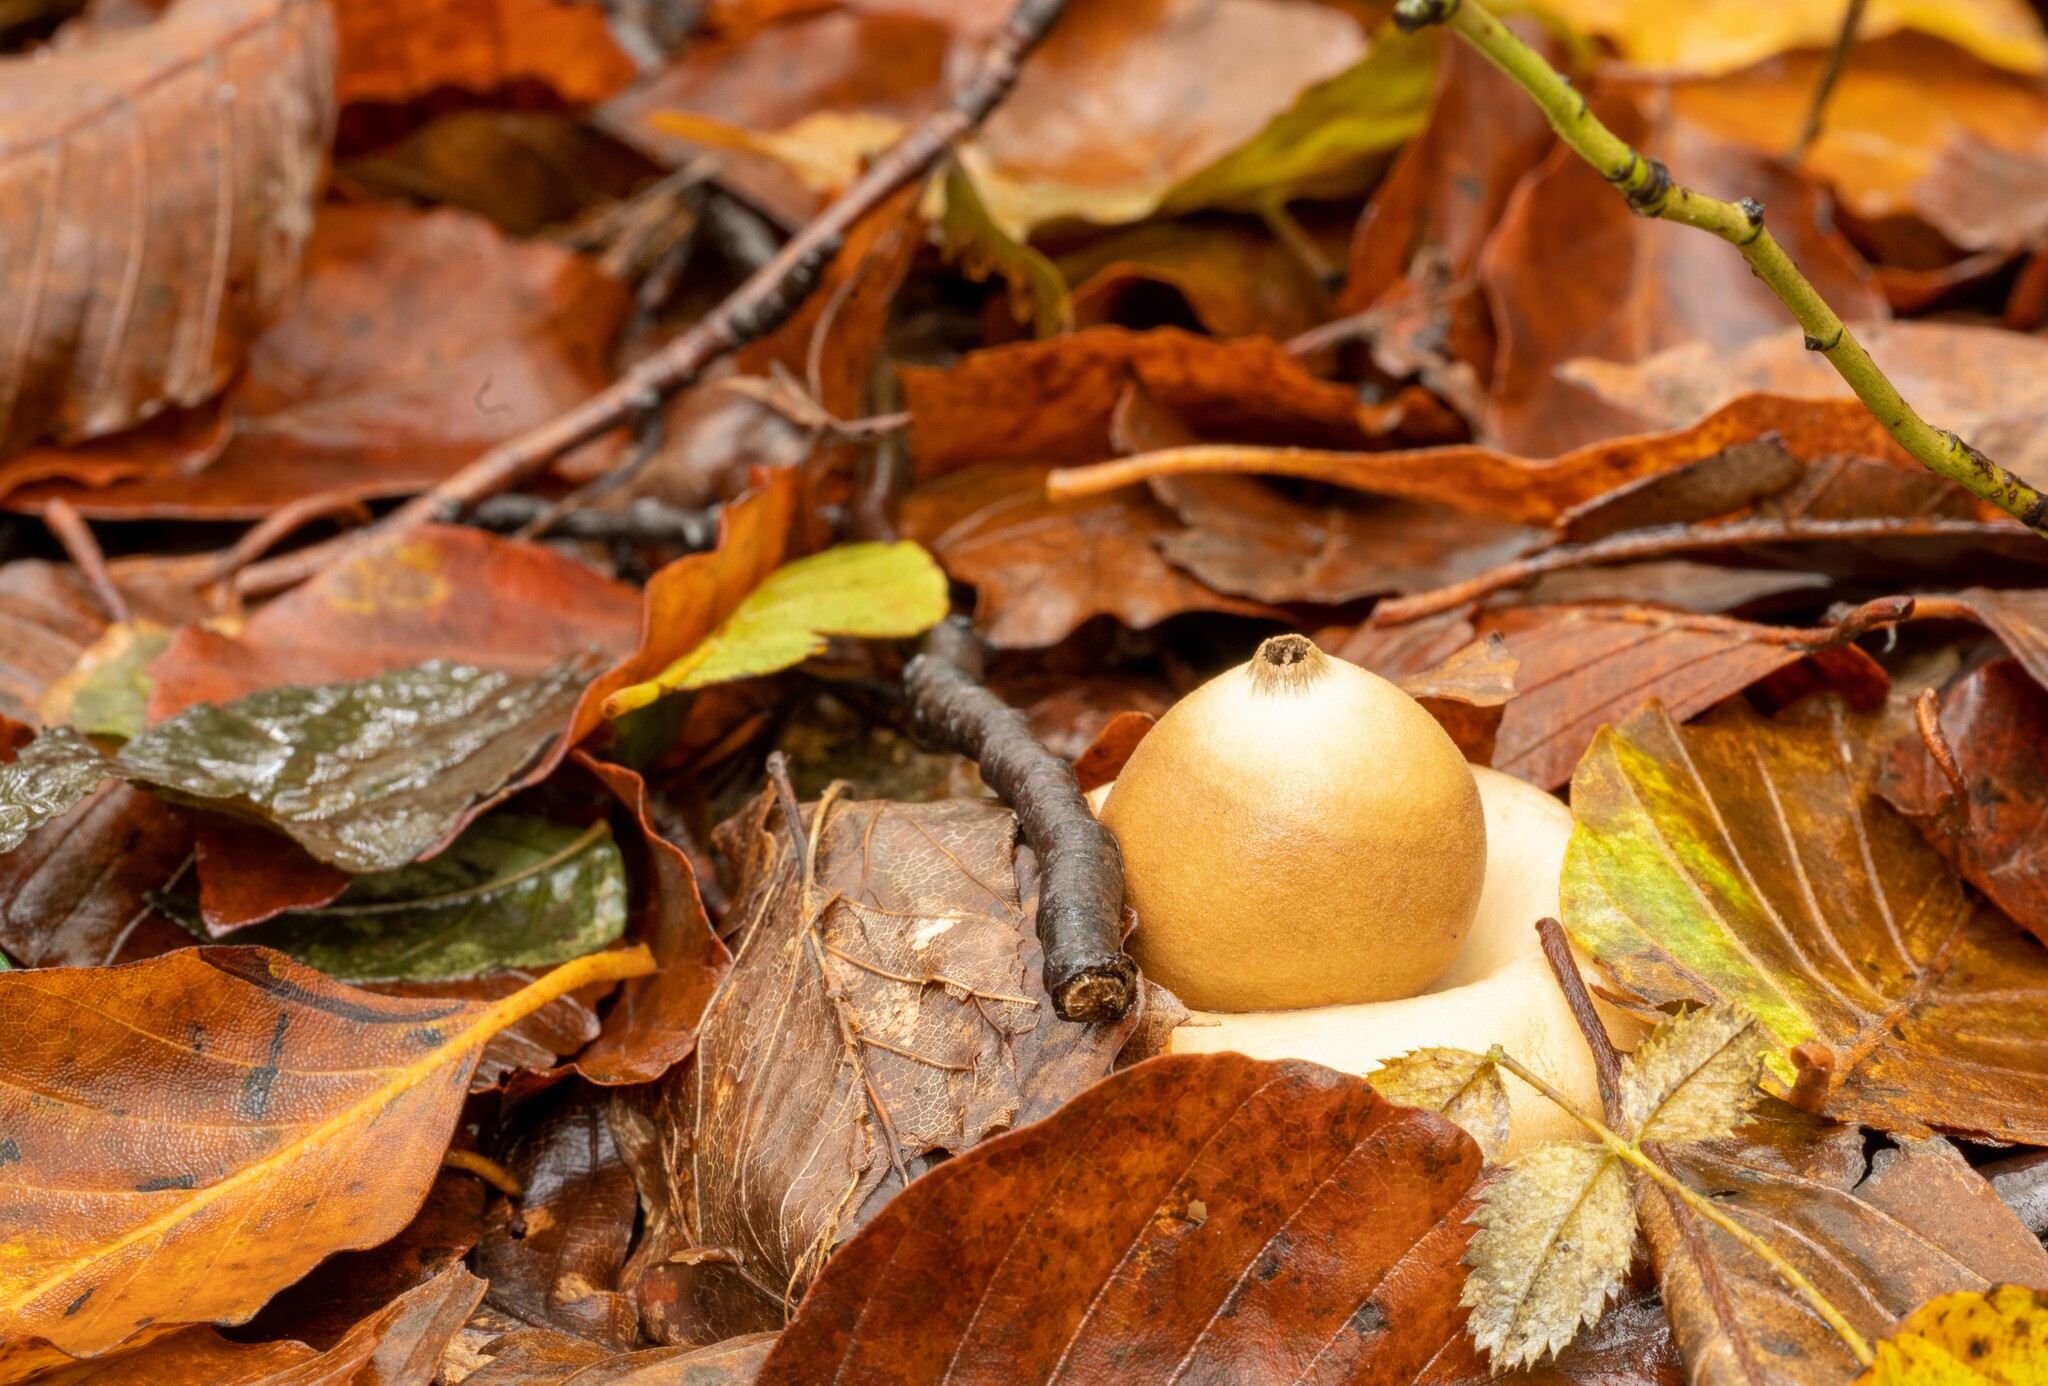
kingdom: Fungi
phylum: Basidiomycota
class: Agaricomycetes
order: Geastrales
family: Geastraceae
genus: Geastrum
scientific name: Geastrum fimbriatum
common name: Sessile earthstar
